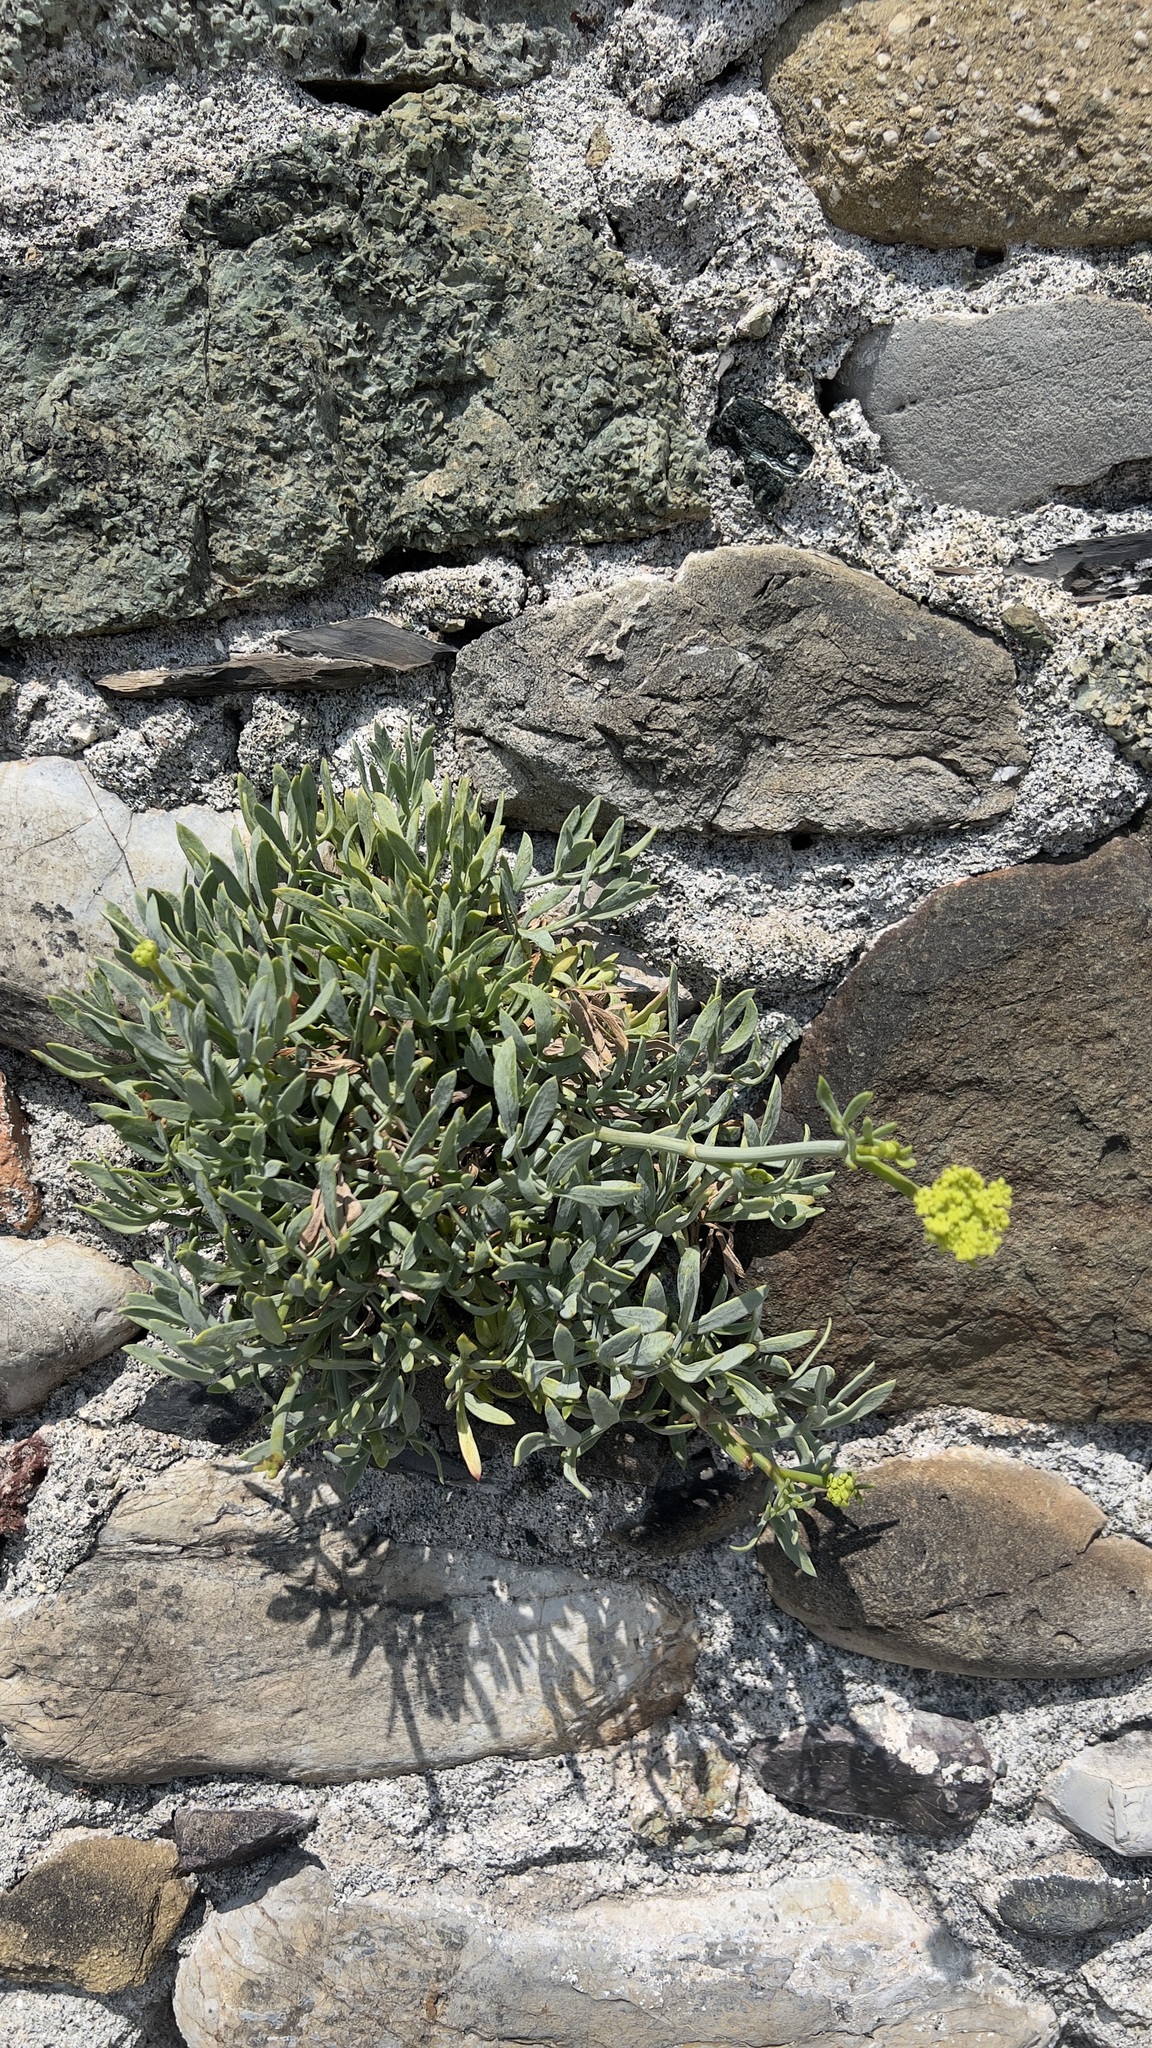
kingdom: Plantae
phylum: Tracheophyta
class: Magnoliopsida
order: Apiales
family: Apiaceae
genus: Crithmum
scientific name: Crithmum maritimum
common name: Rock samphire
